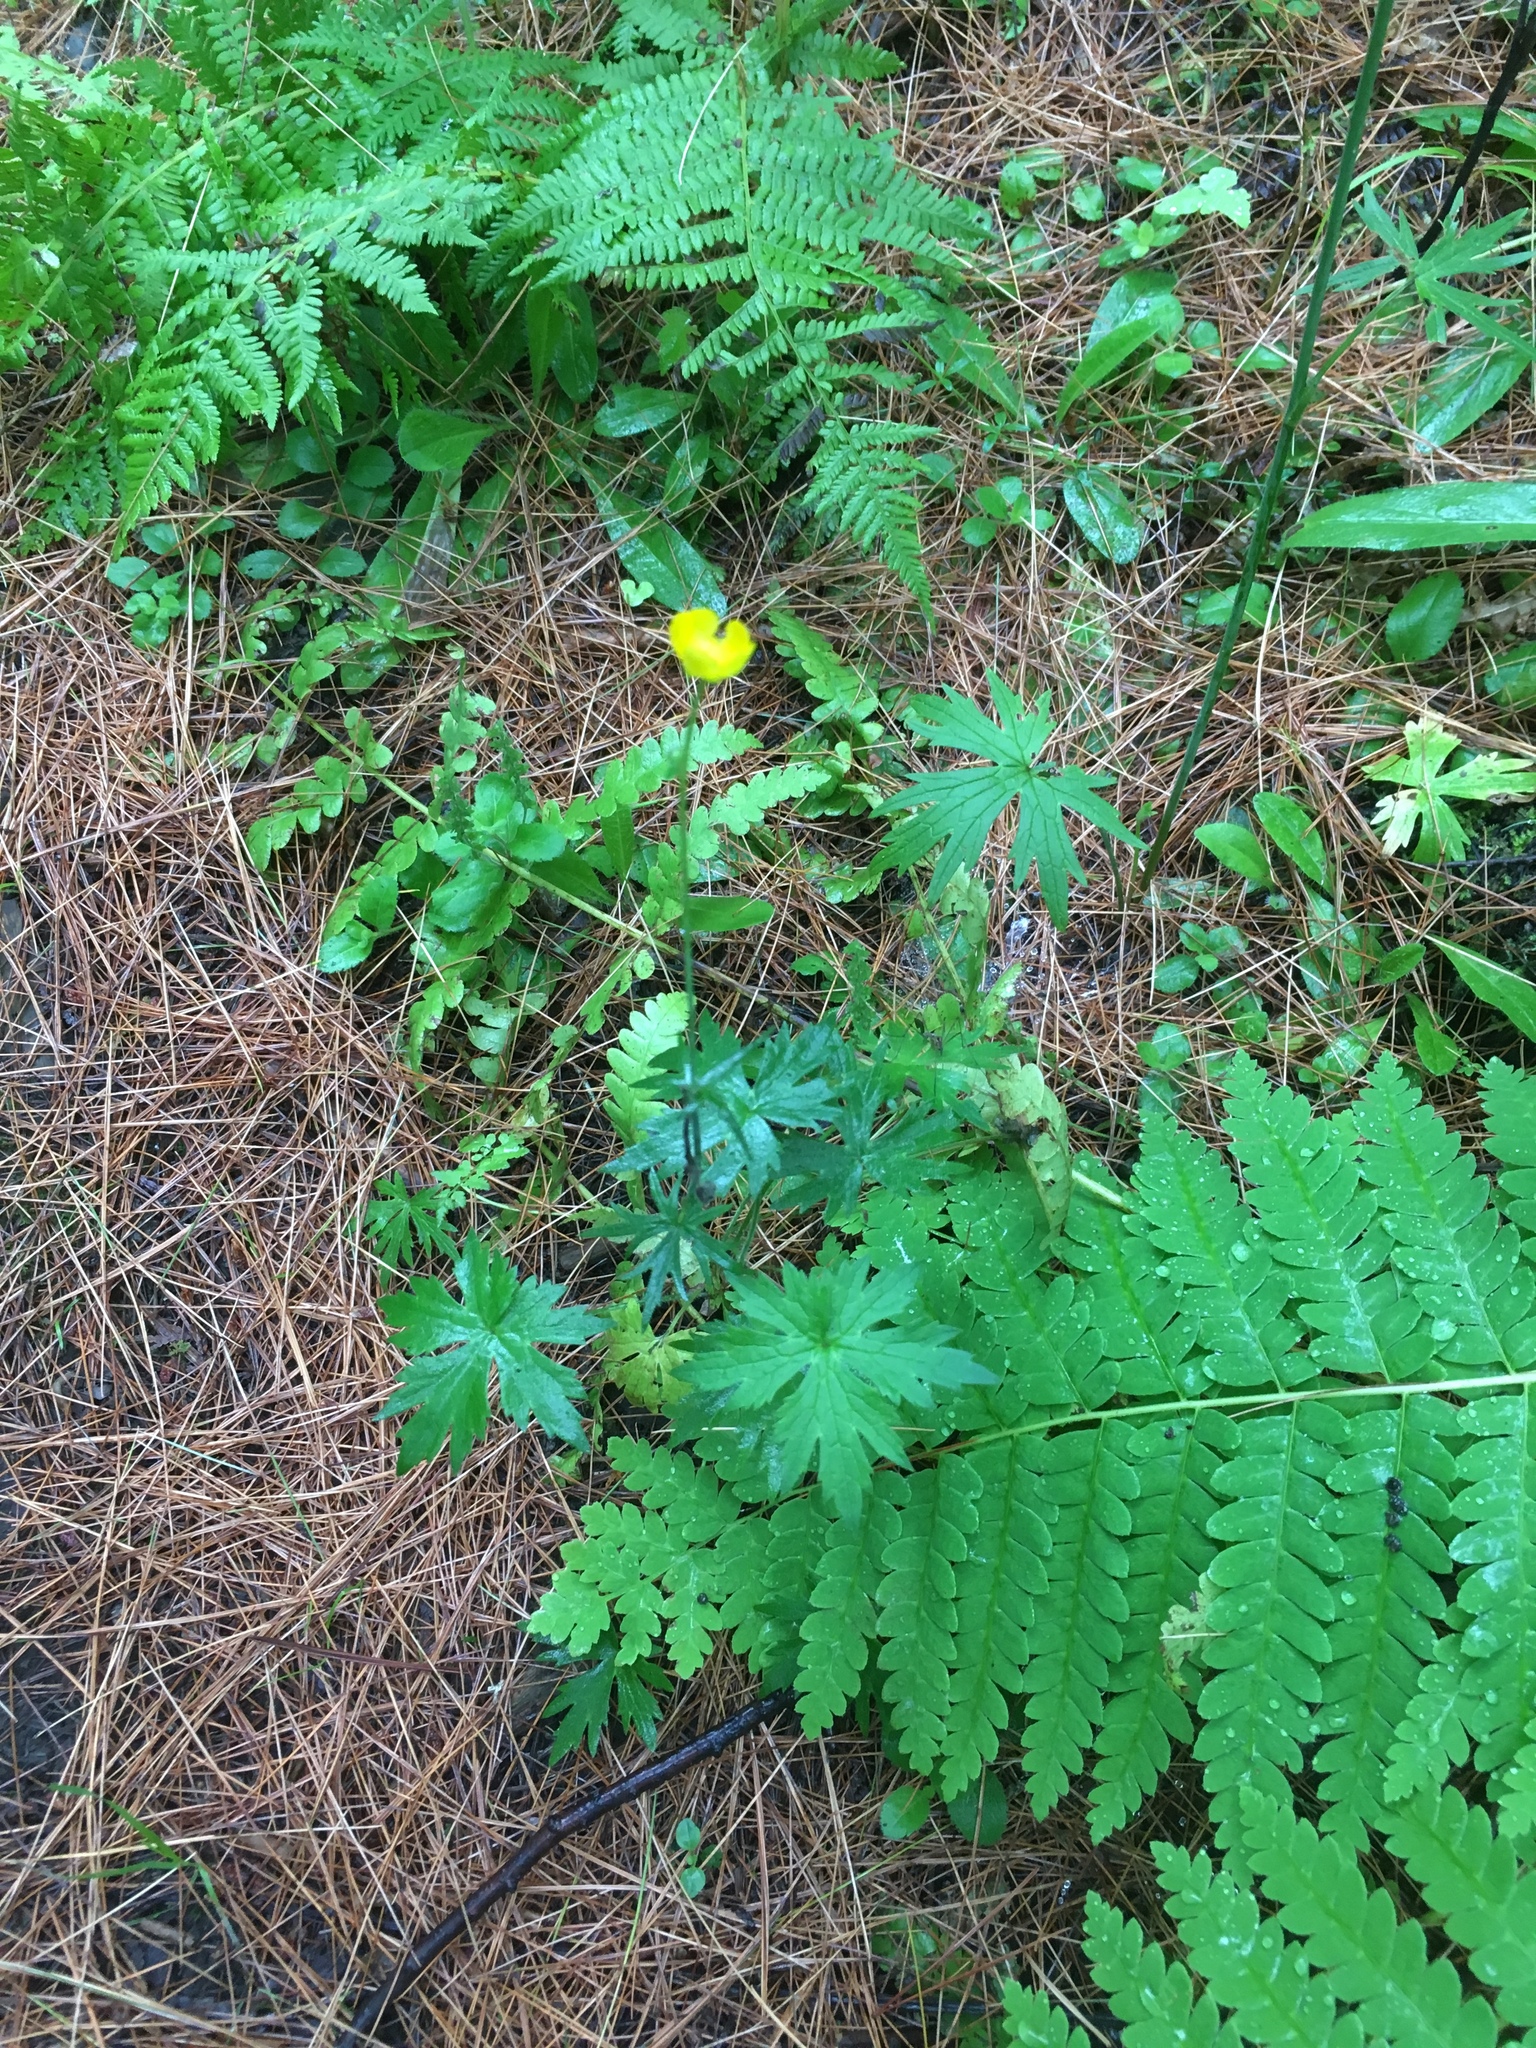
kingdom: Plantae
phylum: Tracheophyta
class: Magnoliopsida
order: Ranunculales
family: Ranunculaceae
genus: Ranunculus
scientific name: Ranunculus acris
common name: Meadow buttercup
